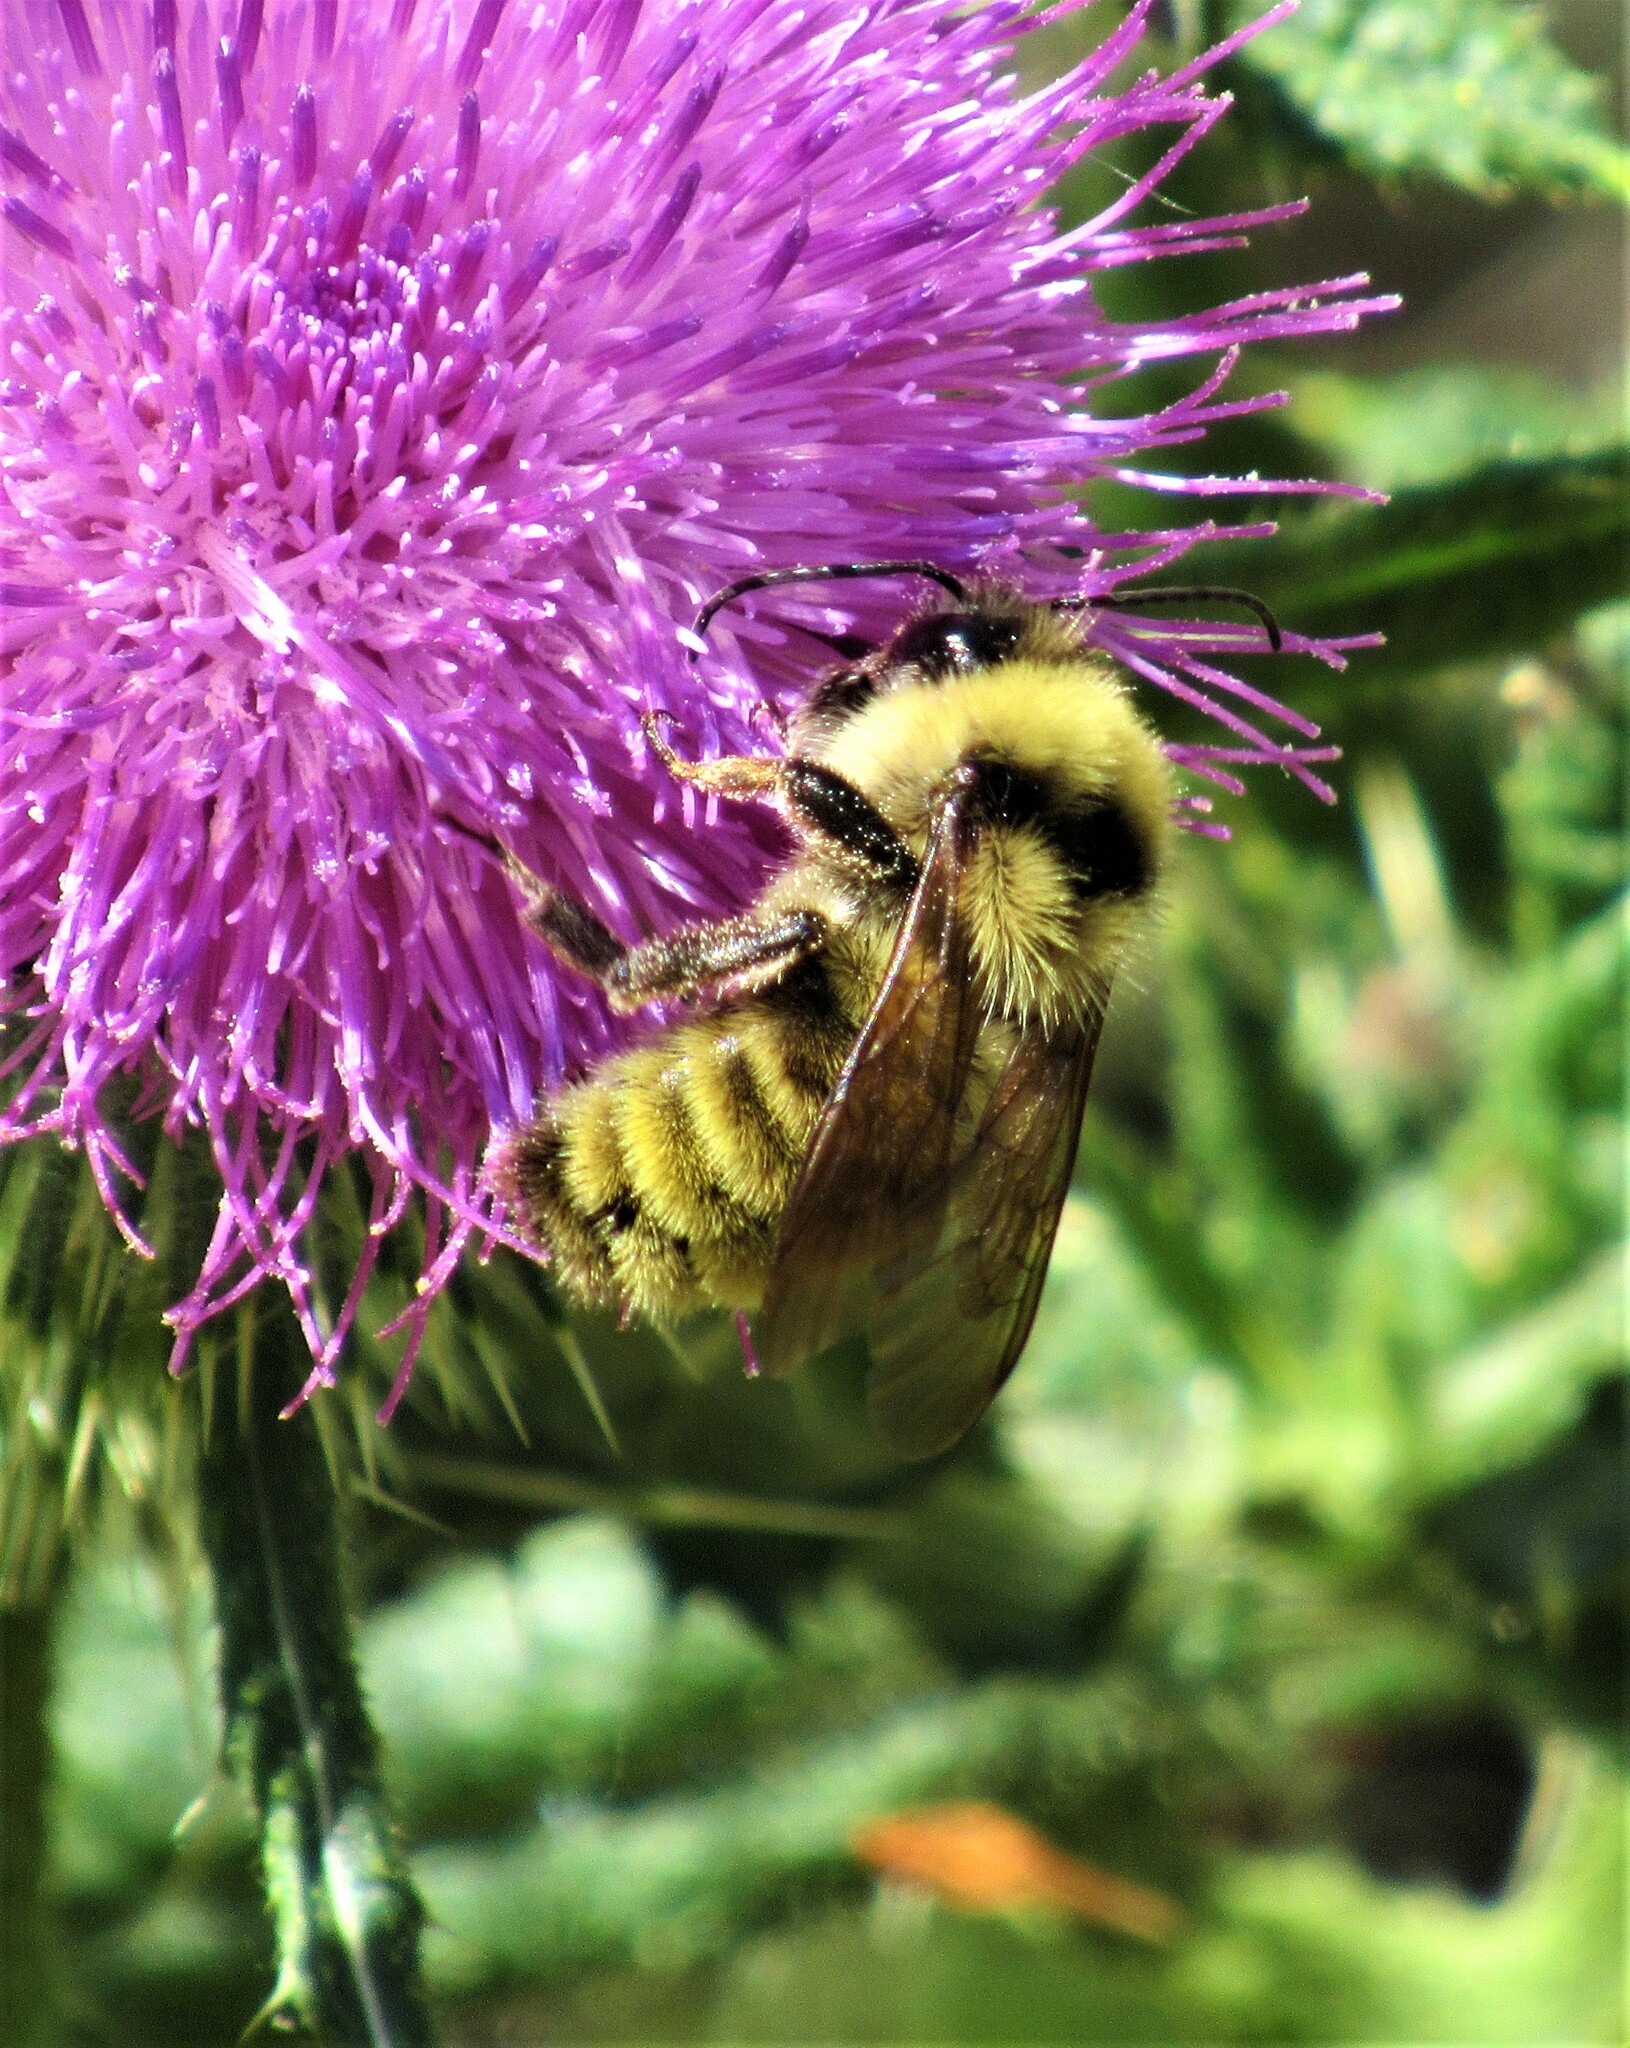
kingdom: Animalia
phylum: Arthropoda
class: Insecta
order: Hymenoptera
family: Apidae
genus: Bombus
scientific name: Bombus californicus
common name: California bumble bee
